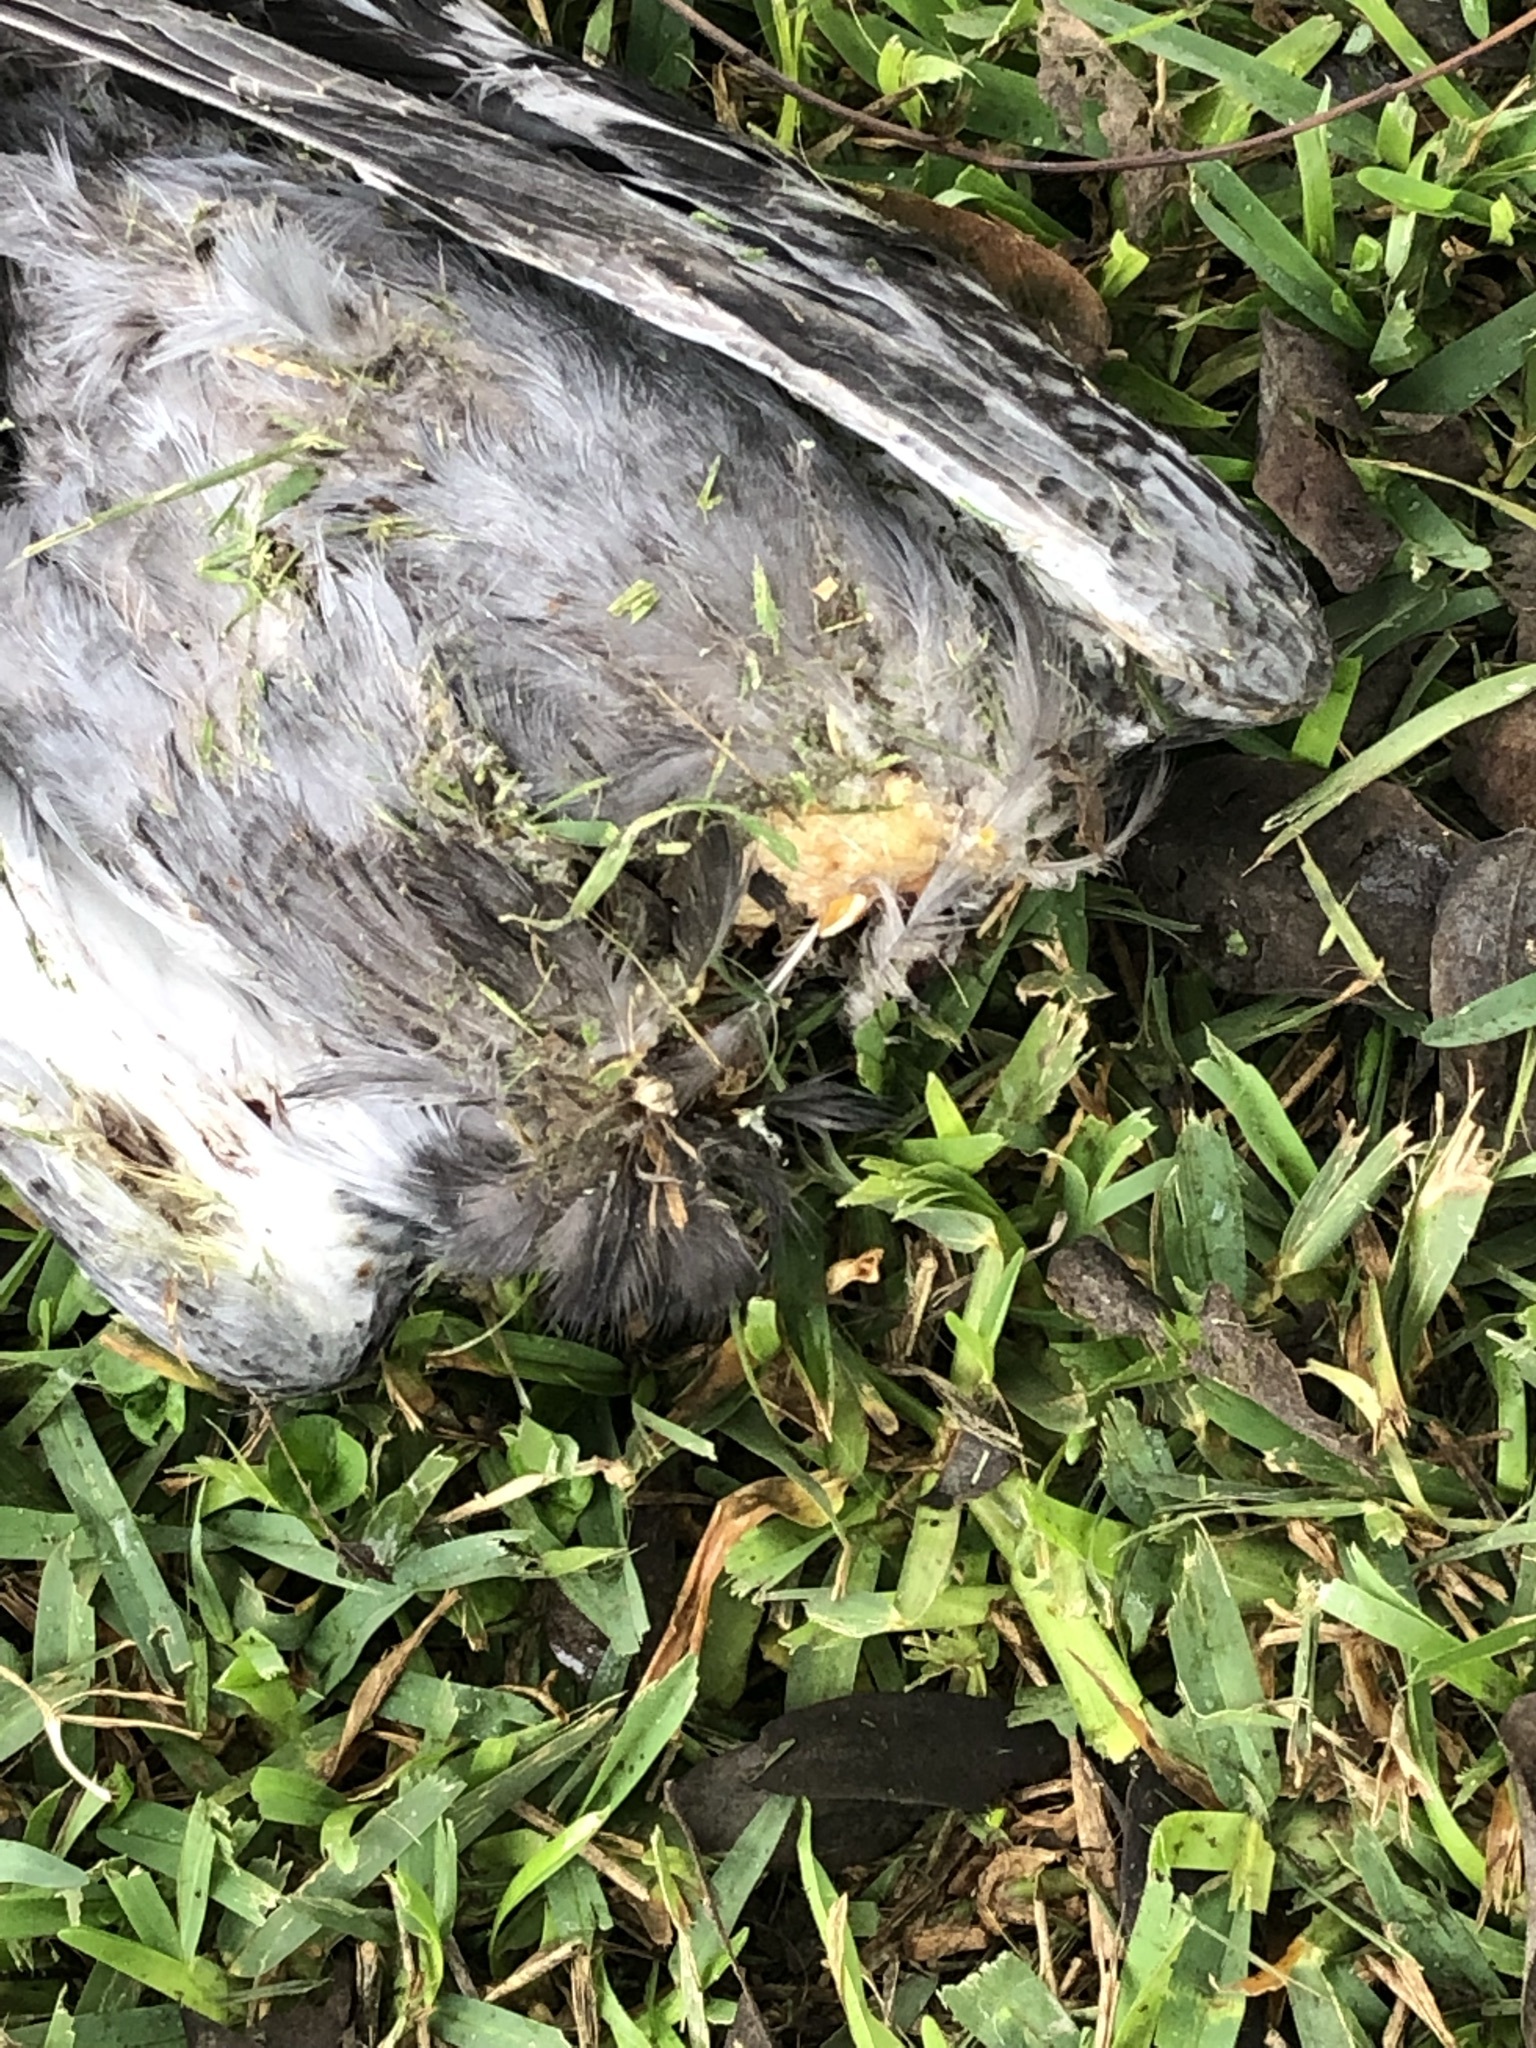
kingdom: Animalia
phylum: Chordata
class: Aves
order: Columbiformes
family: Columbidae
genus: Columba
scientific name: Columba livia
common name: Rock pigeon
